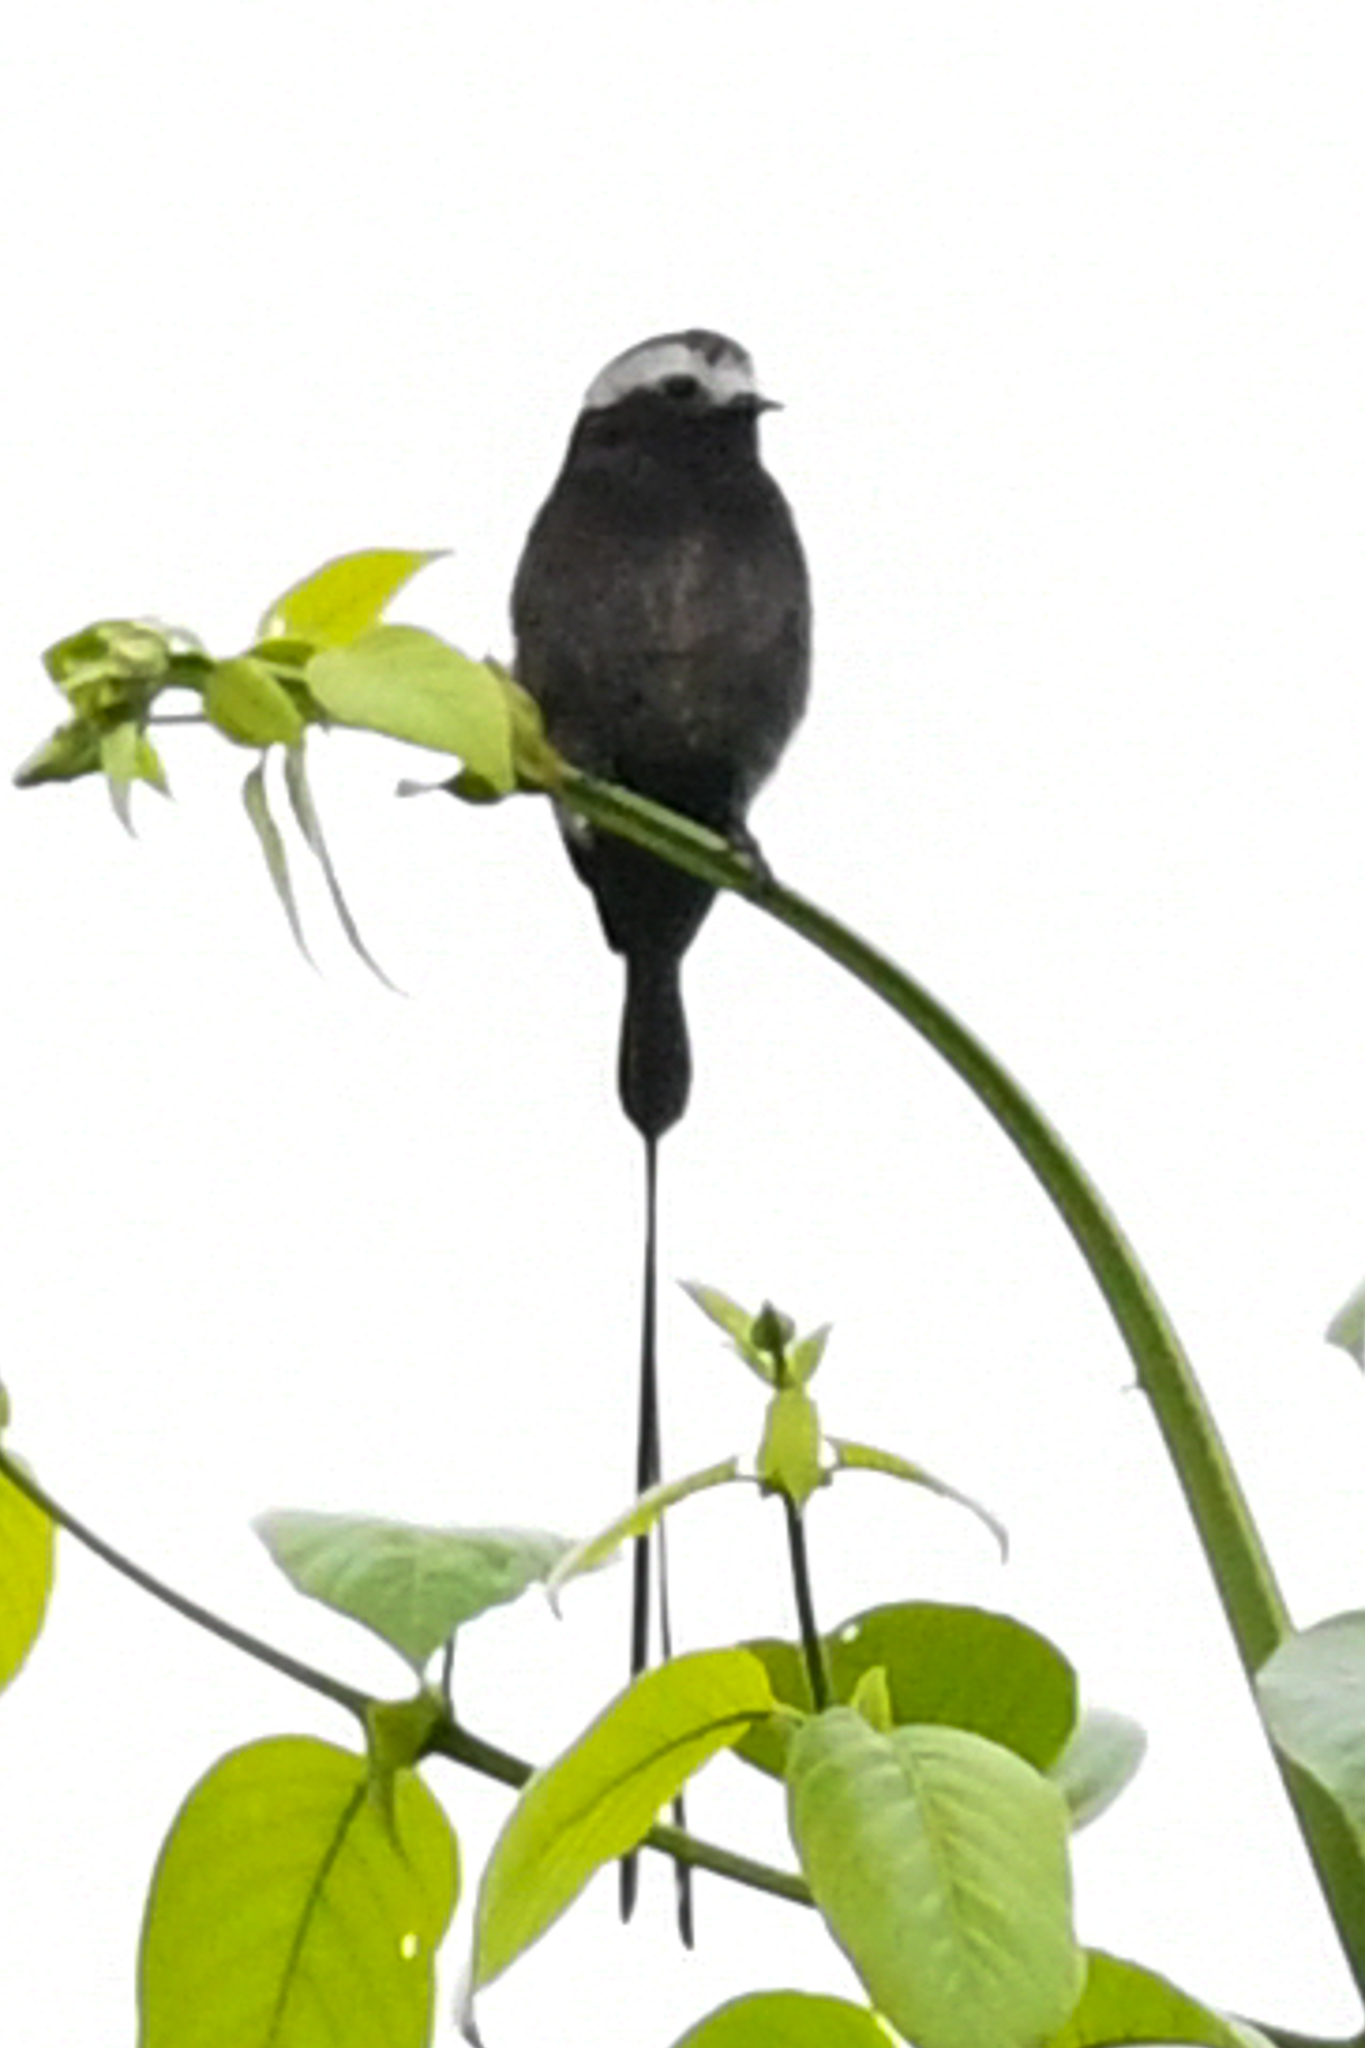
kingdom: Animalia
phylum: Chordata
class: Aves
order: Passeriformes
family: Tyrannidae
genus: Colonia
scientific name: Colonia colonus
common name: Long-tailed tyrant
